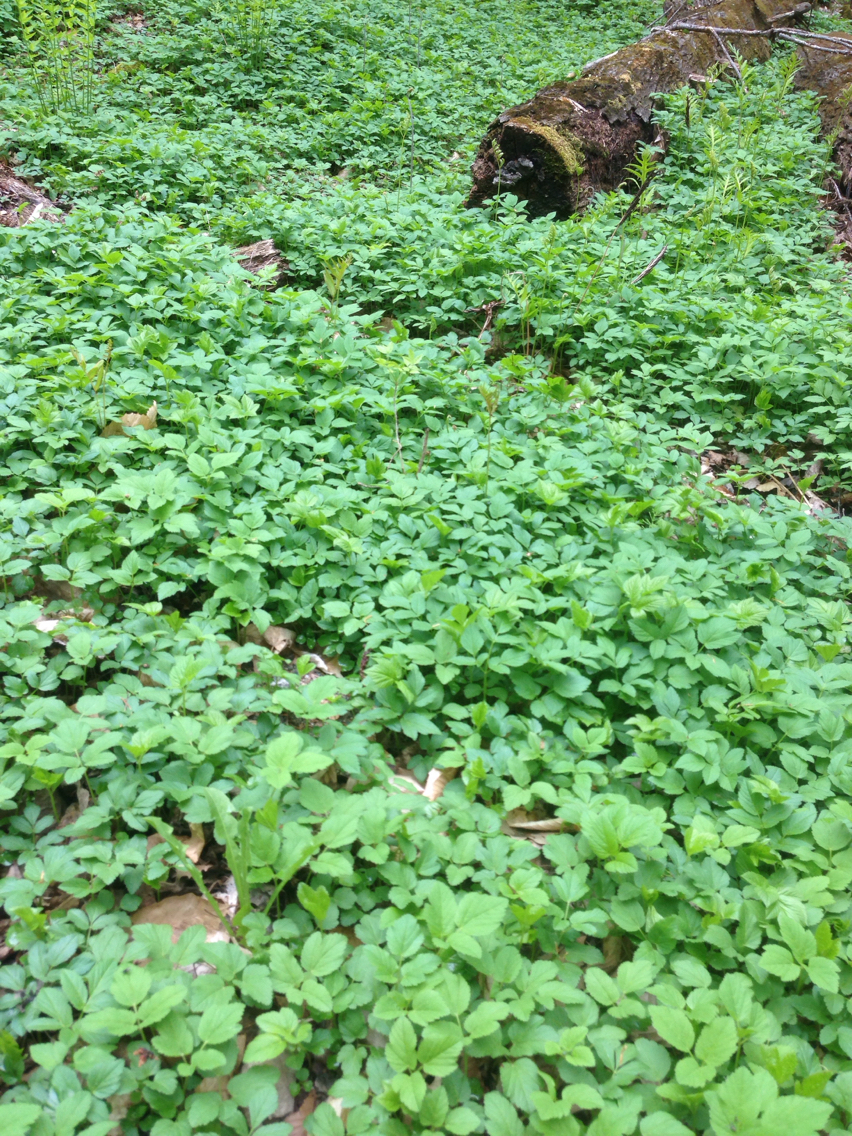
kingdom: Plantae
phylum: Tracheophyta
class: Magnoliopsida
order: Apiales
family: Apiaceae
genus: Aegopodium
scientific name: Aegopodium podagraria
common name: Ground-elder
